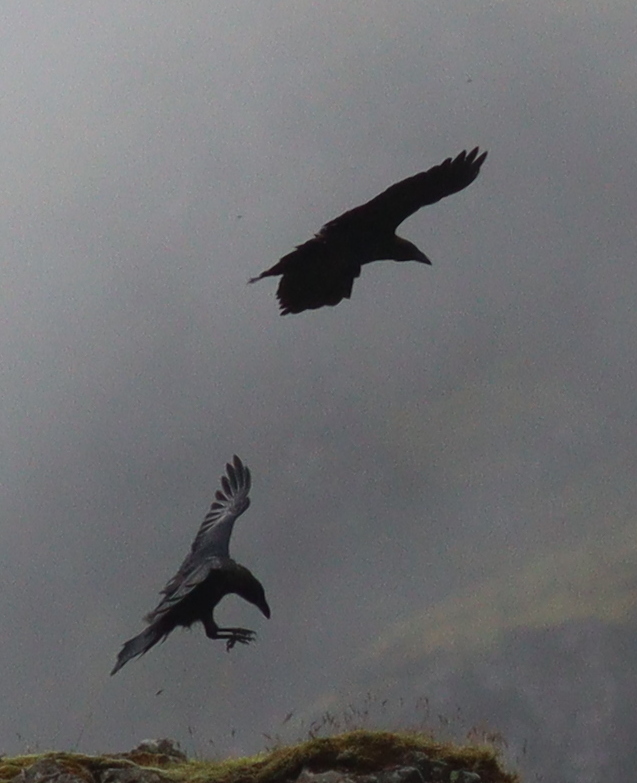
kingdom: Animalia
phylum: Chordata
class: Aves
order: Passeriformes
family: Corvidae
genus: Corvus
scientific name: Corvus corax
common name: Common raven
